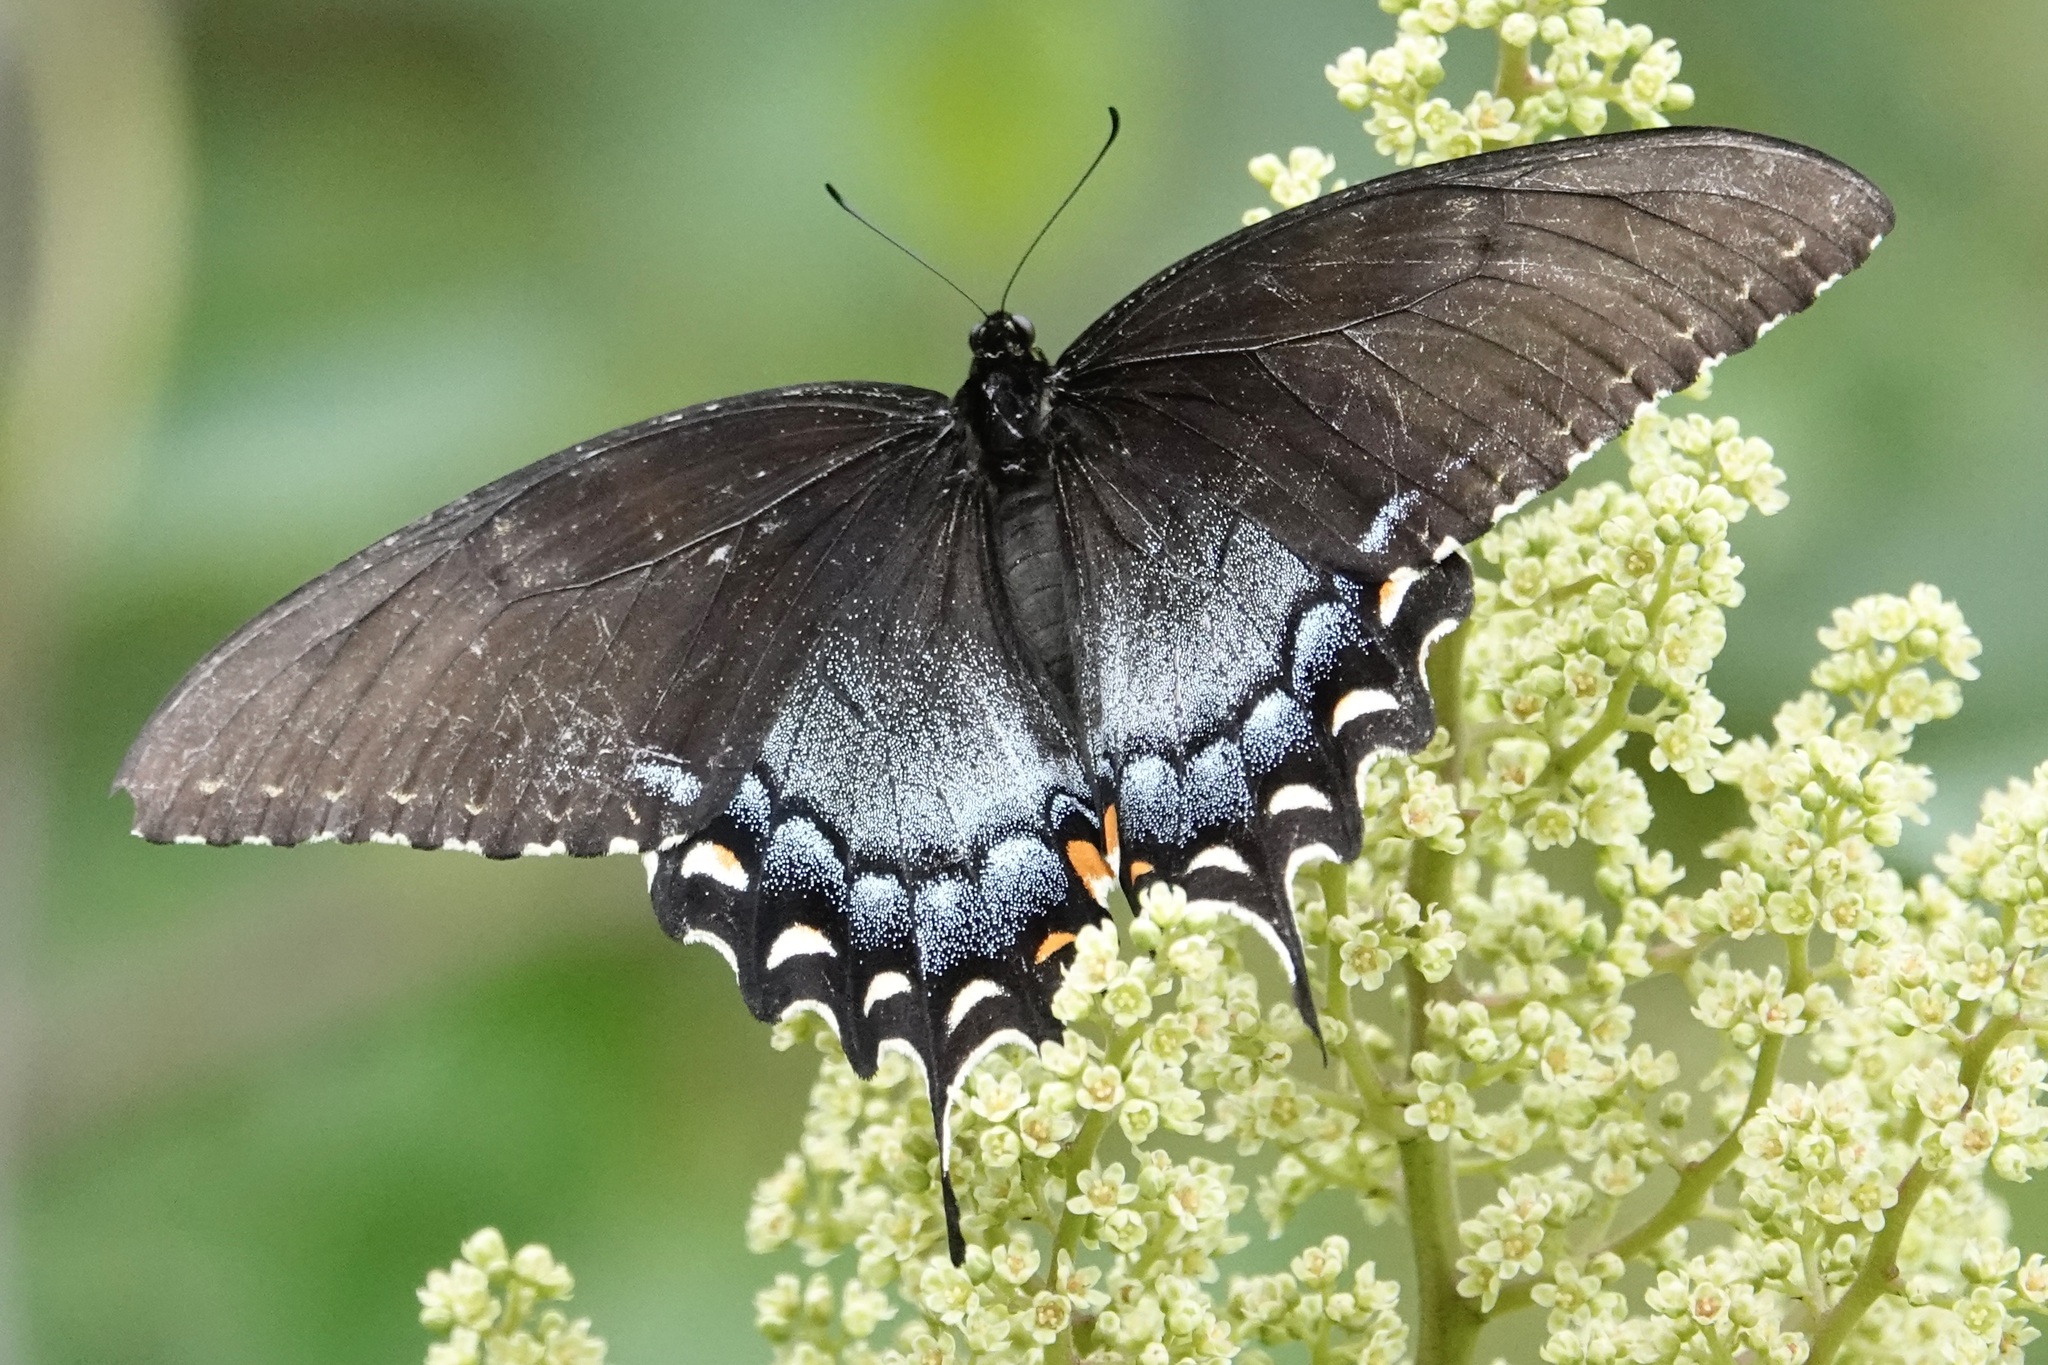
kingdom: Animalia
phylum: Arthropoda
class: Insecta
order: Lepidoptera
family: Papilionidae
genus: Papilio
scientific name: Papilio glaucus
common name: Tiger swallowtail
